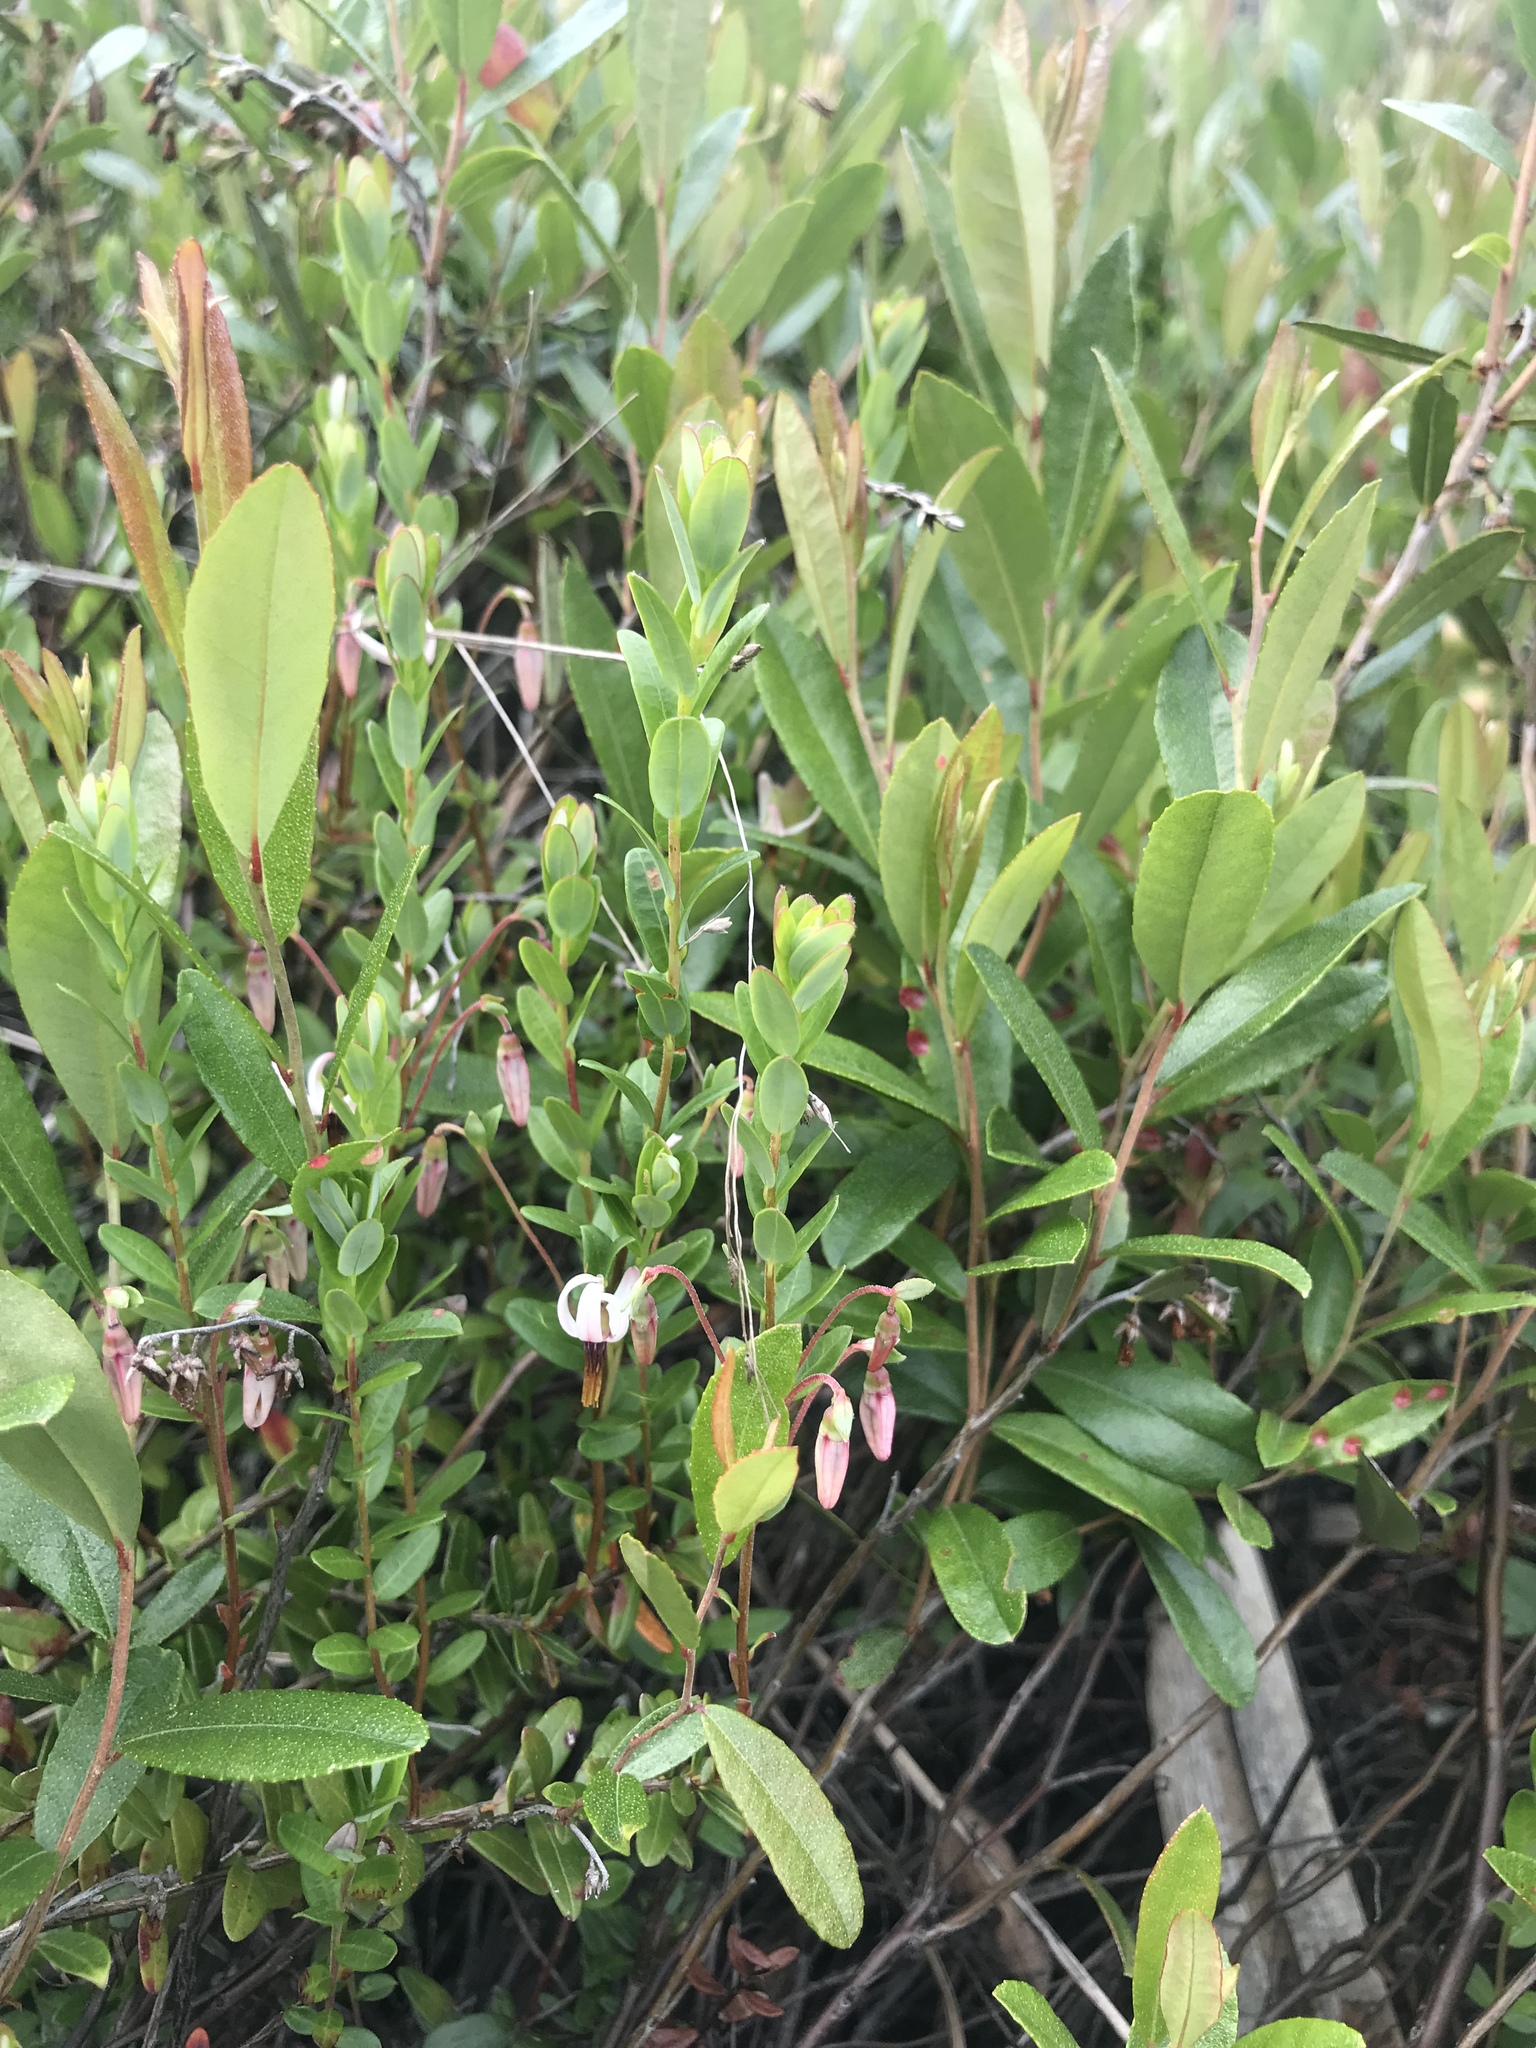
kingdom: Plantae
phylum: Tracheophyta
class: Magnoliopsida
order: Ericales
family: Ericaceae
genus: Vaccinium
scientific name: Vaccinium macrocarpon
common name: American cranberry
